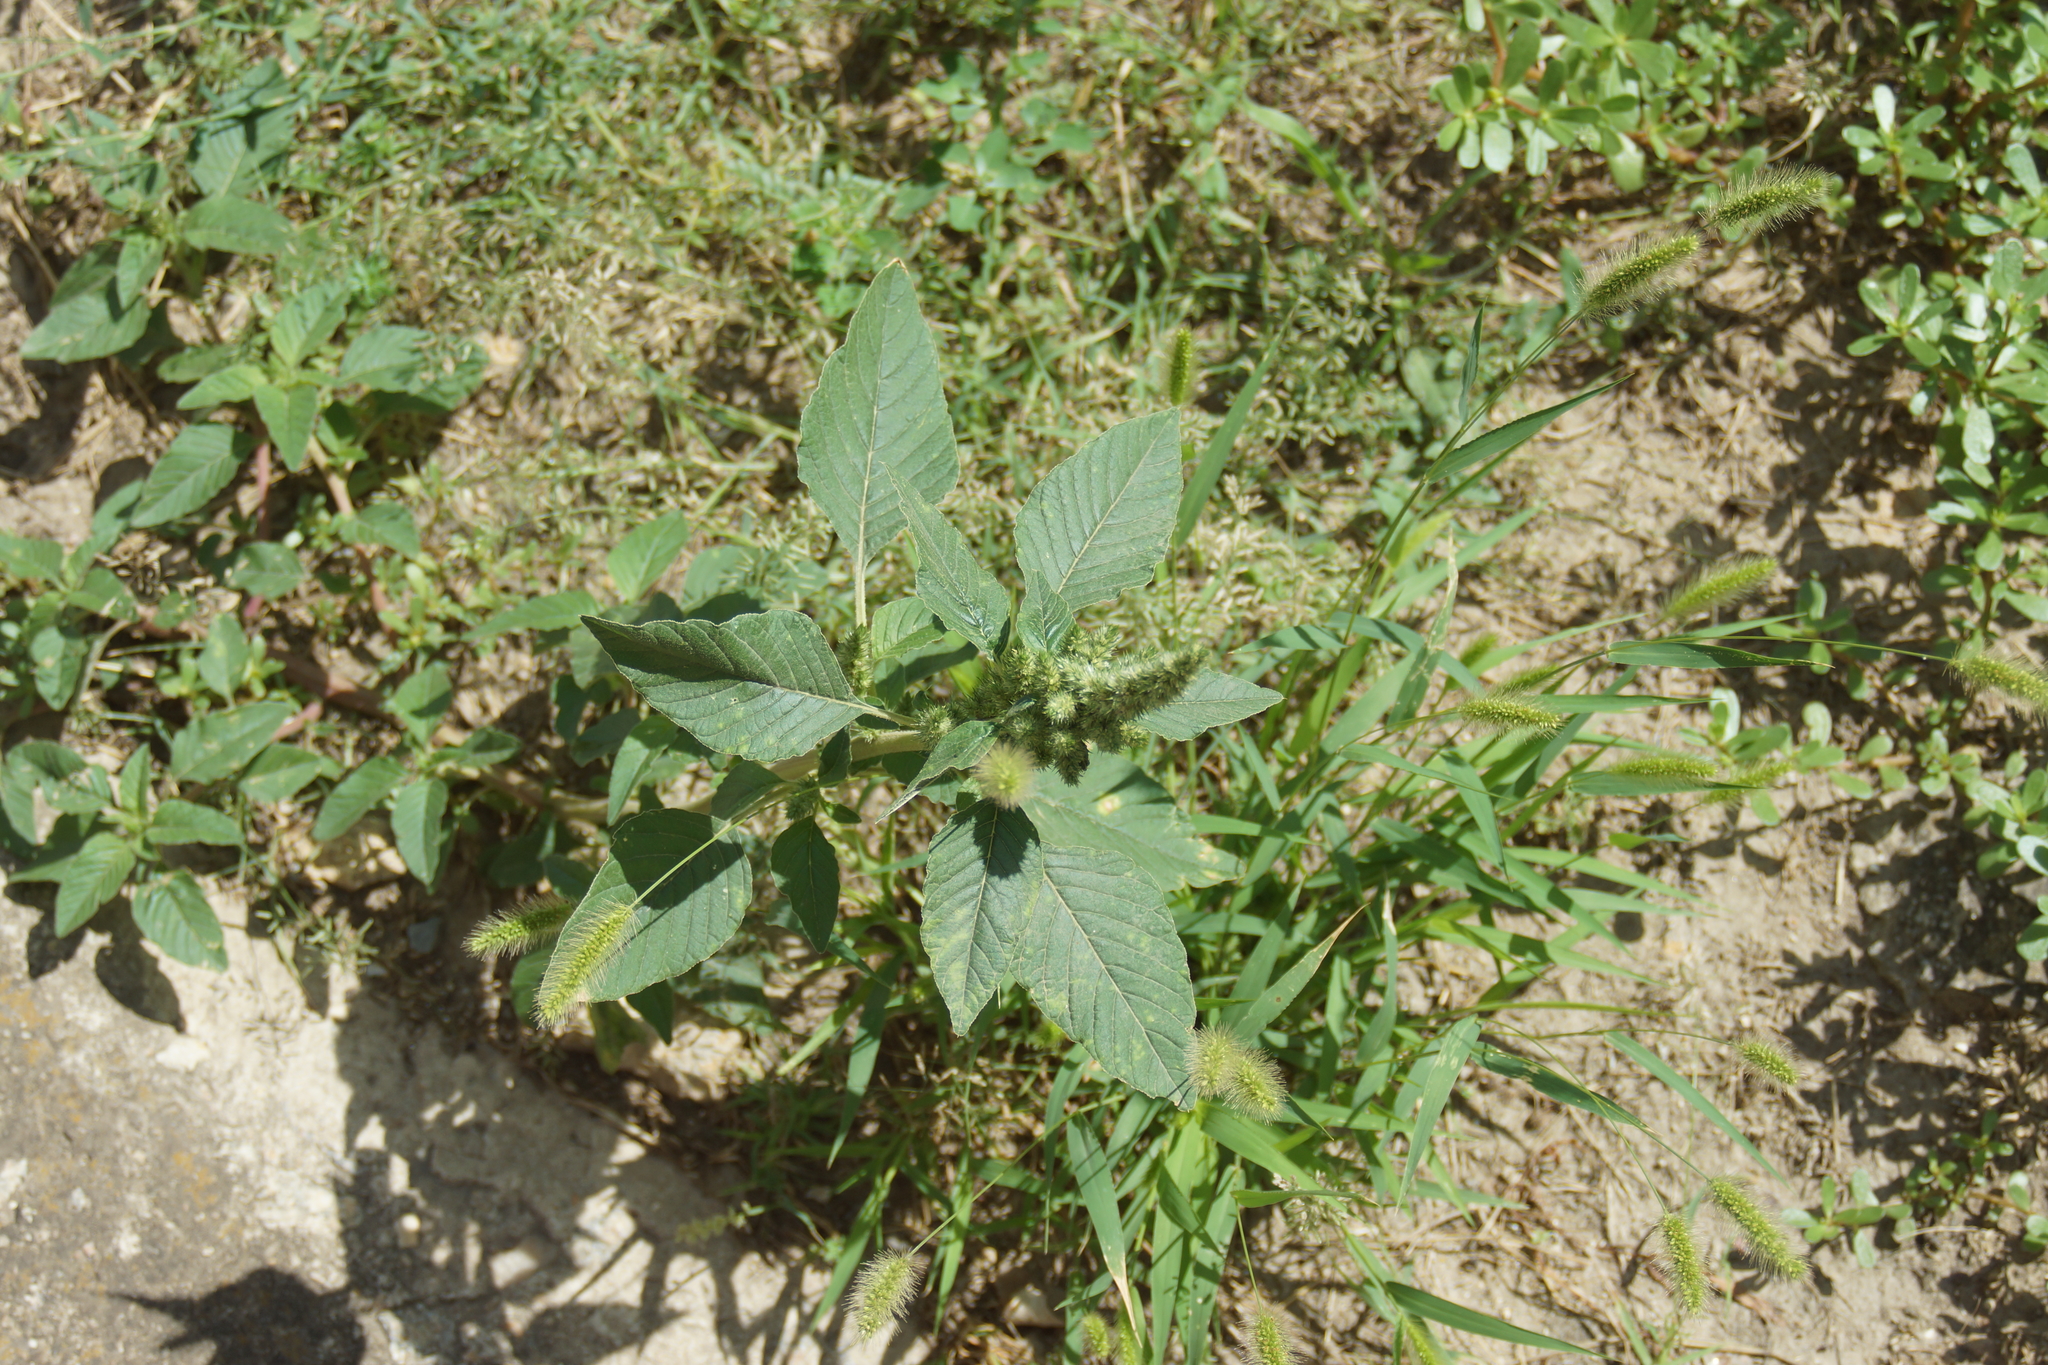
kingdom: Plantae
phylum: Tracheophyta
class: Magnoliopsida
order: Caryophyllales
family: Amaranthaceae
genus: Amaranthus
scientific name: Amaranthus retroflexus
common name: Redroot amaranth
